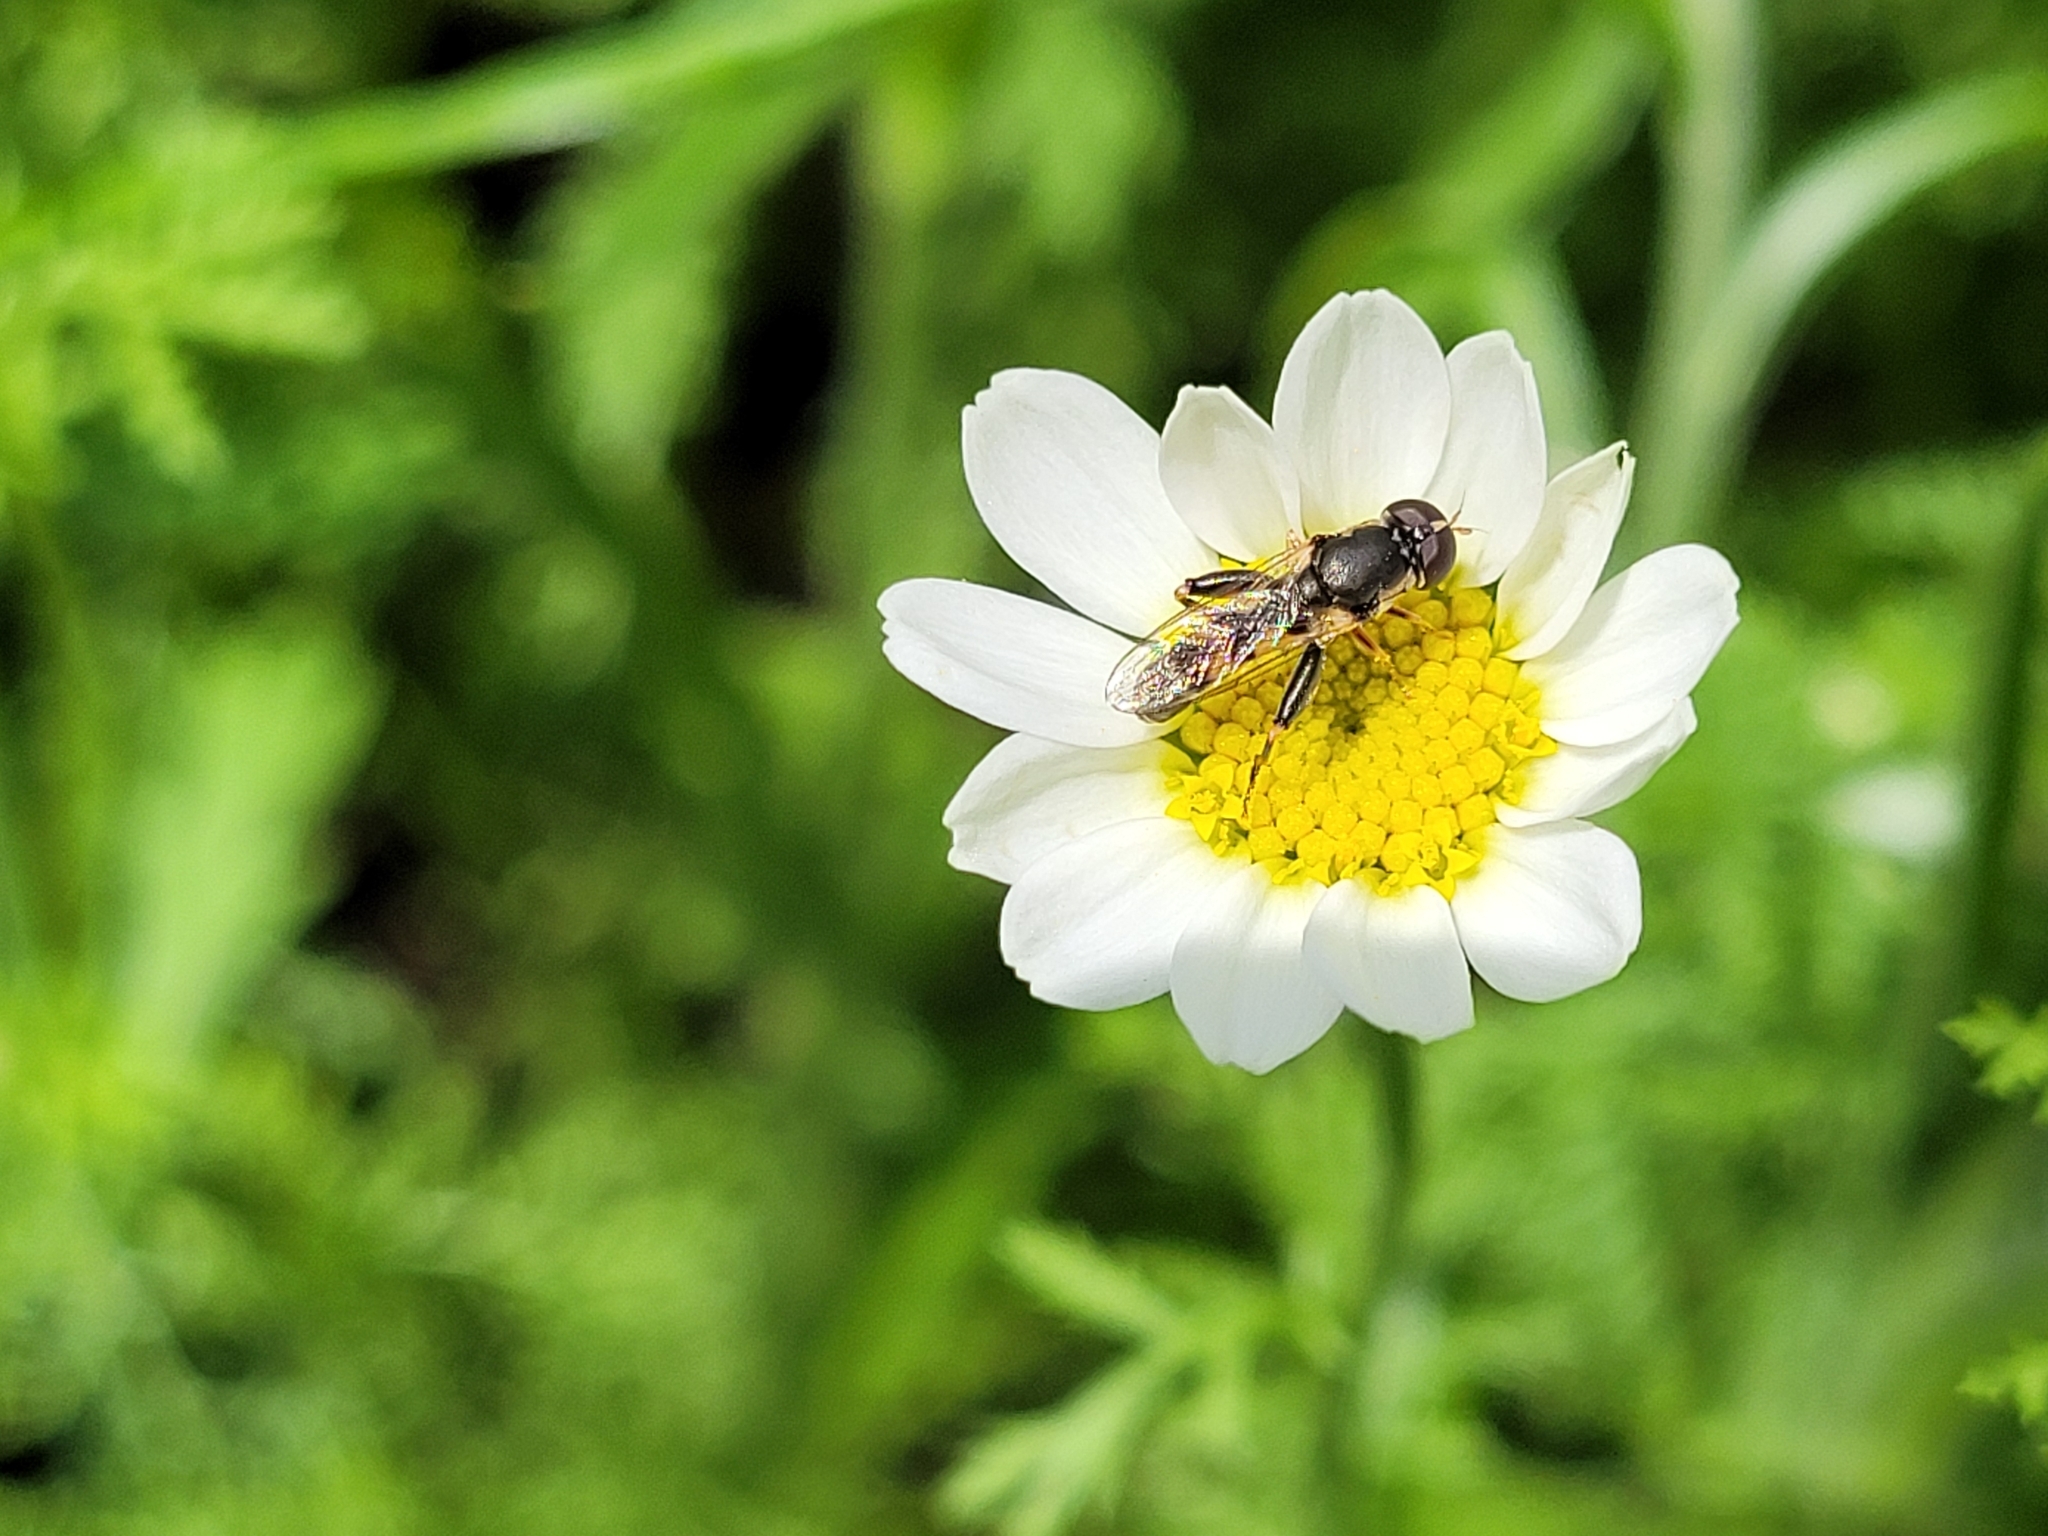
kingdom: Animalia
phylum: Arthropoda
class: Insecta
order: Diptera
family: Syrphidae
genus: Syritta
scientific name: Syritta pipiens
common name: Hover fly
